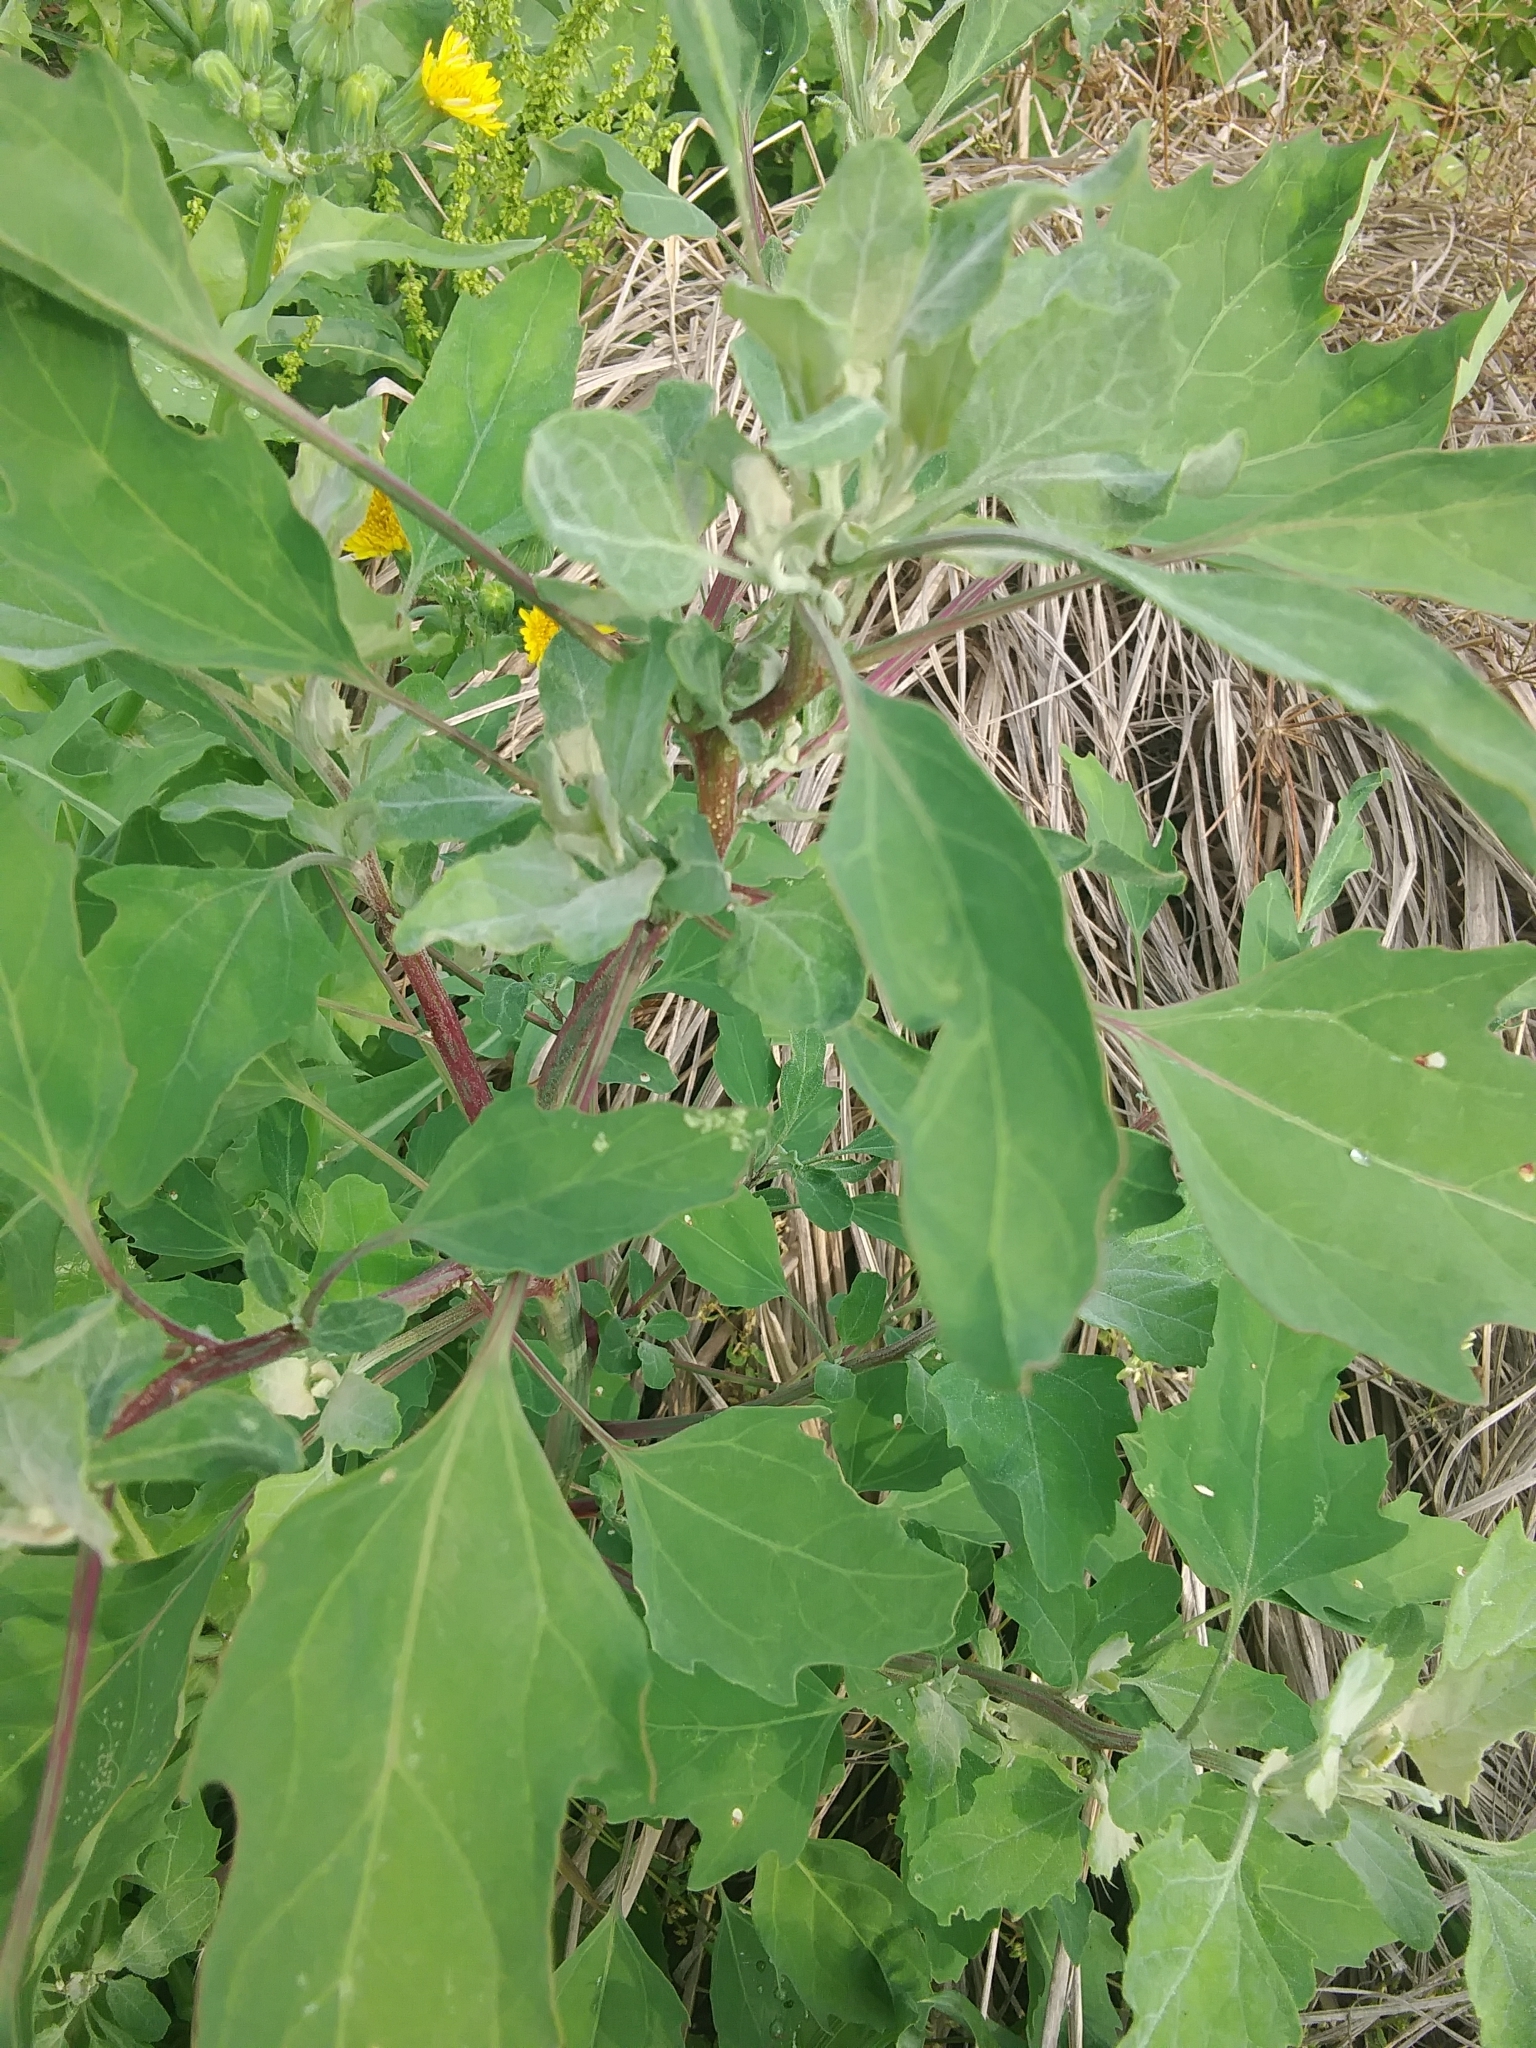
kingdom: Plantae
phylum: Tracheophyta
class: Magnoliopsida
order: Caryophyllales
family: Amaranthaceae
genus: Chenopodium
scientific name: Chenopodium album
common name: Fat-hen
